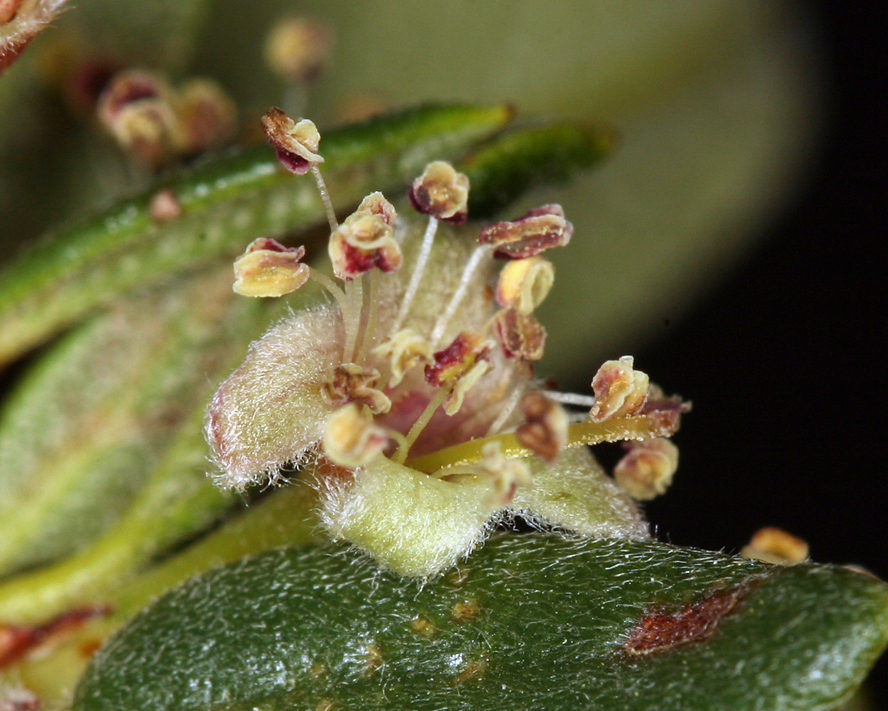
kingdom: Plantae
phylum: Tracheophyta
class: Magnoliopsida
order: Rosales
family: Rosaceae
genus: Cercocarpus
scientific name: Cercocarpus ledifolius
